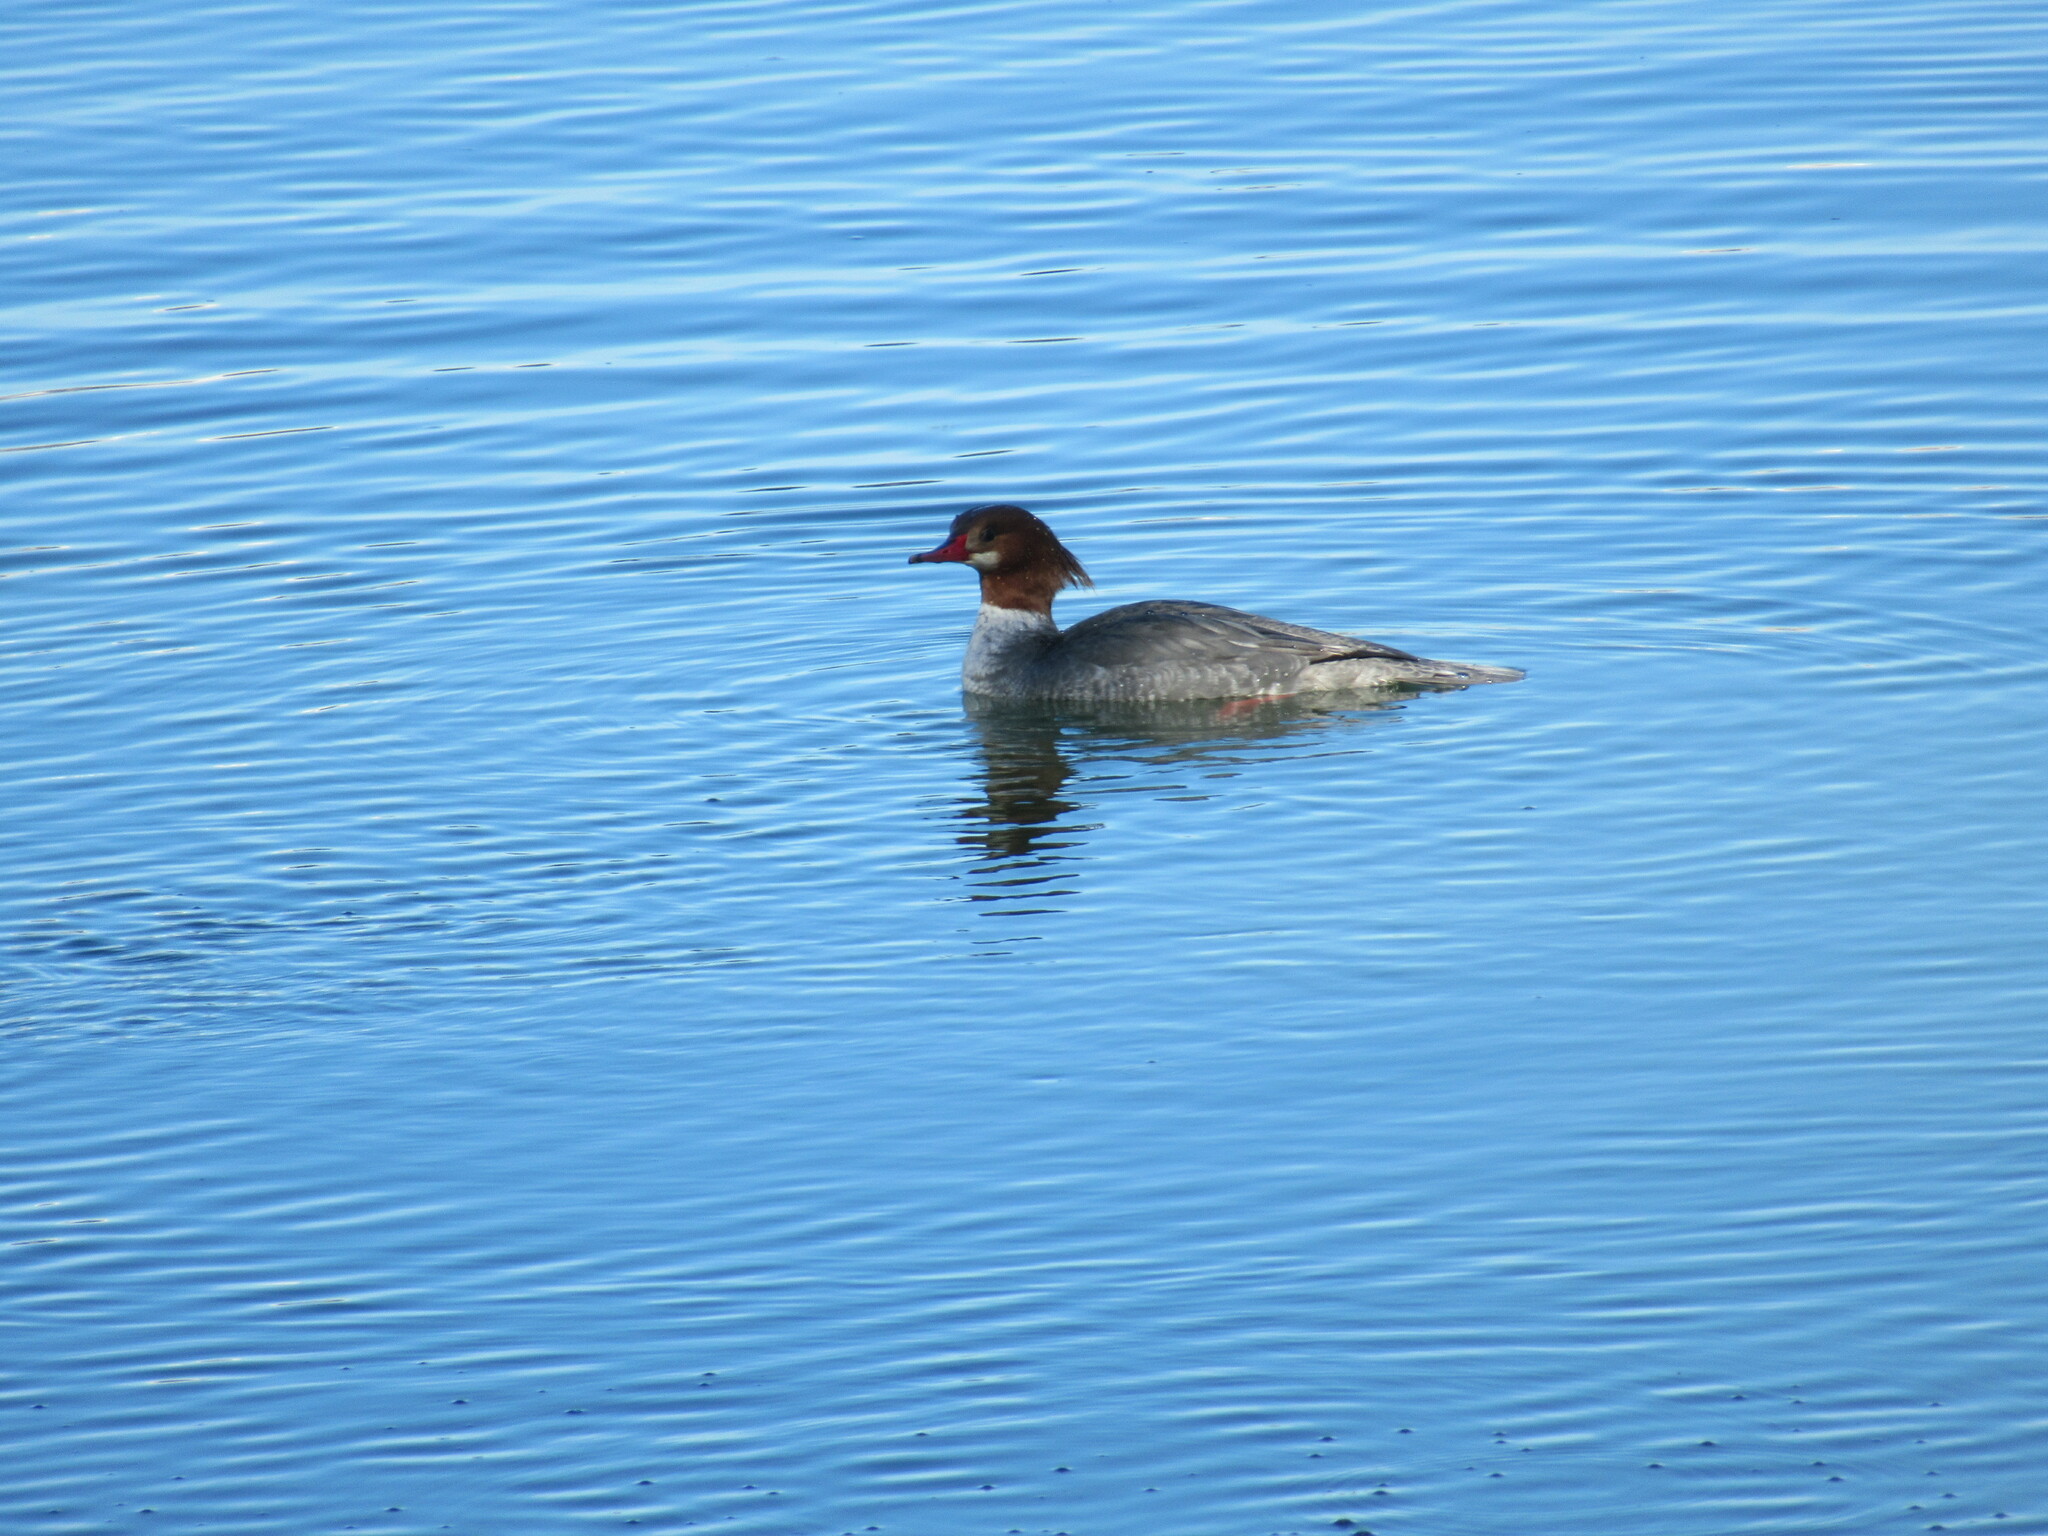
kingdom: Animalia
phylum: Chordata
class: Aves
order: Anseriformes
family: Anatidae
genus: Mergus
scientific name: Mergus merganser
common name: Common merganser
